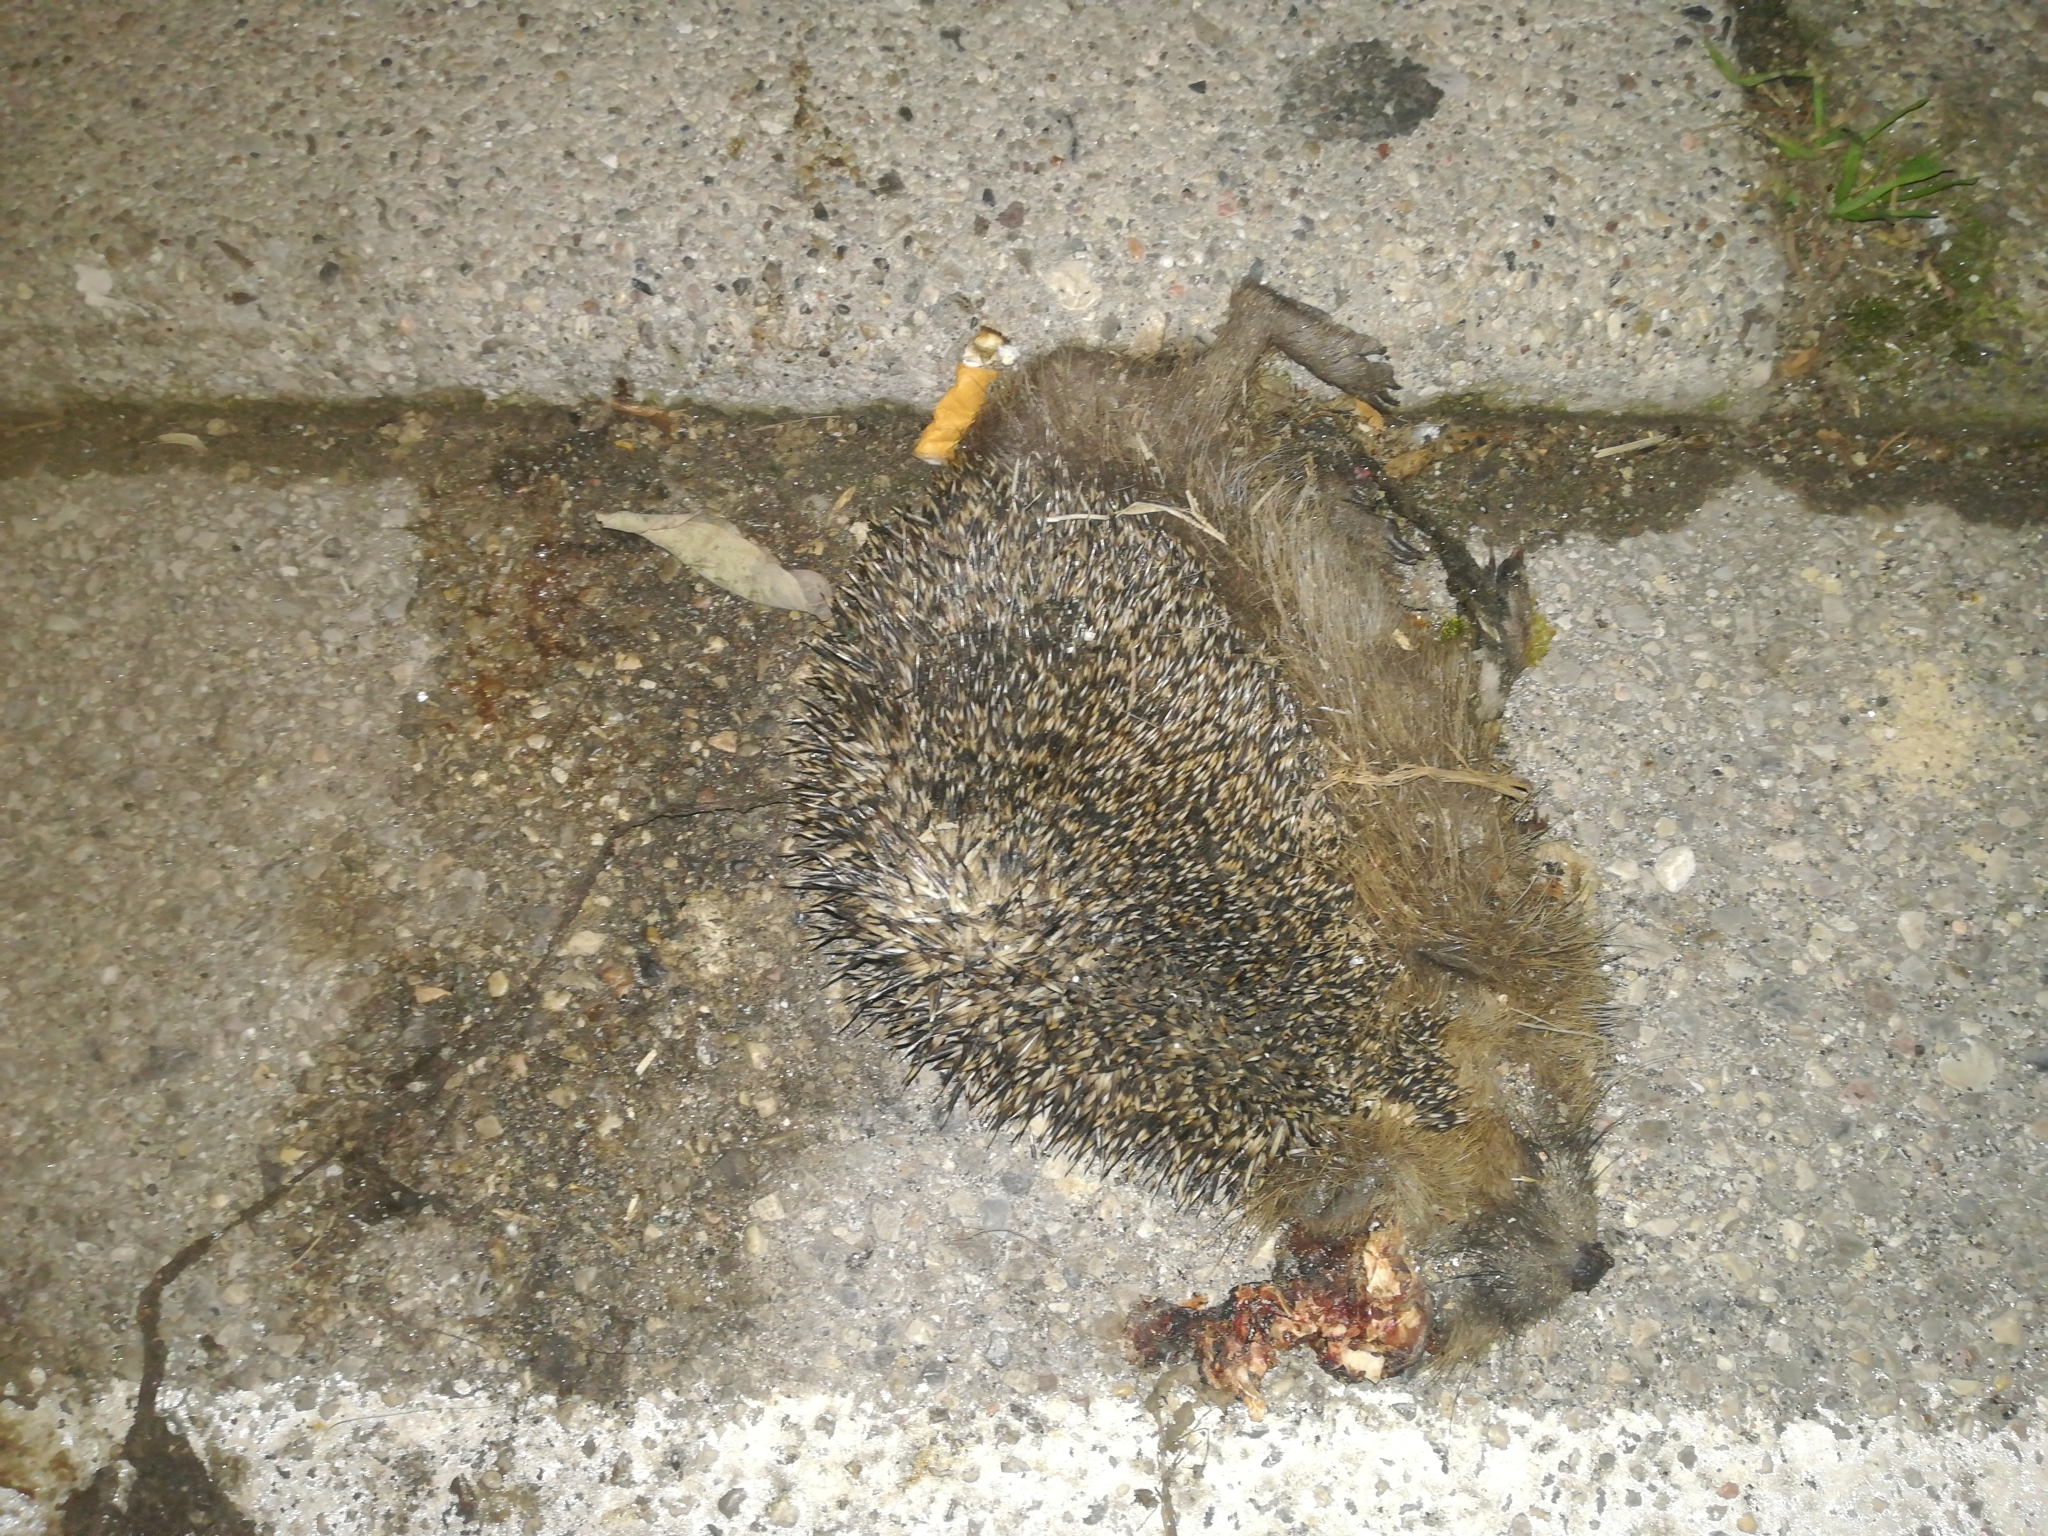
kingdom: Animalia
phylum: Chordata
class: Mammalia
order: Erinaceomorpha
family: Erinaceidae
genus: Erinaceus
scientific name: Erinaceus europaeus
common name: West european hedgehog
